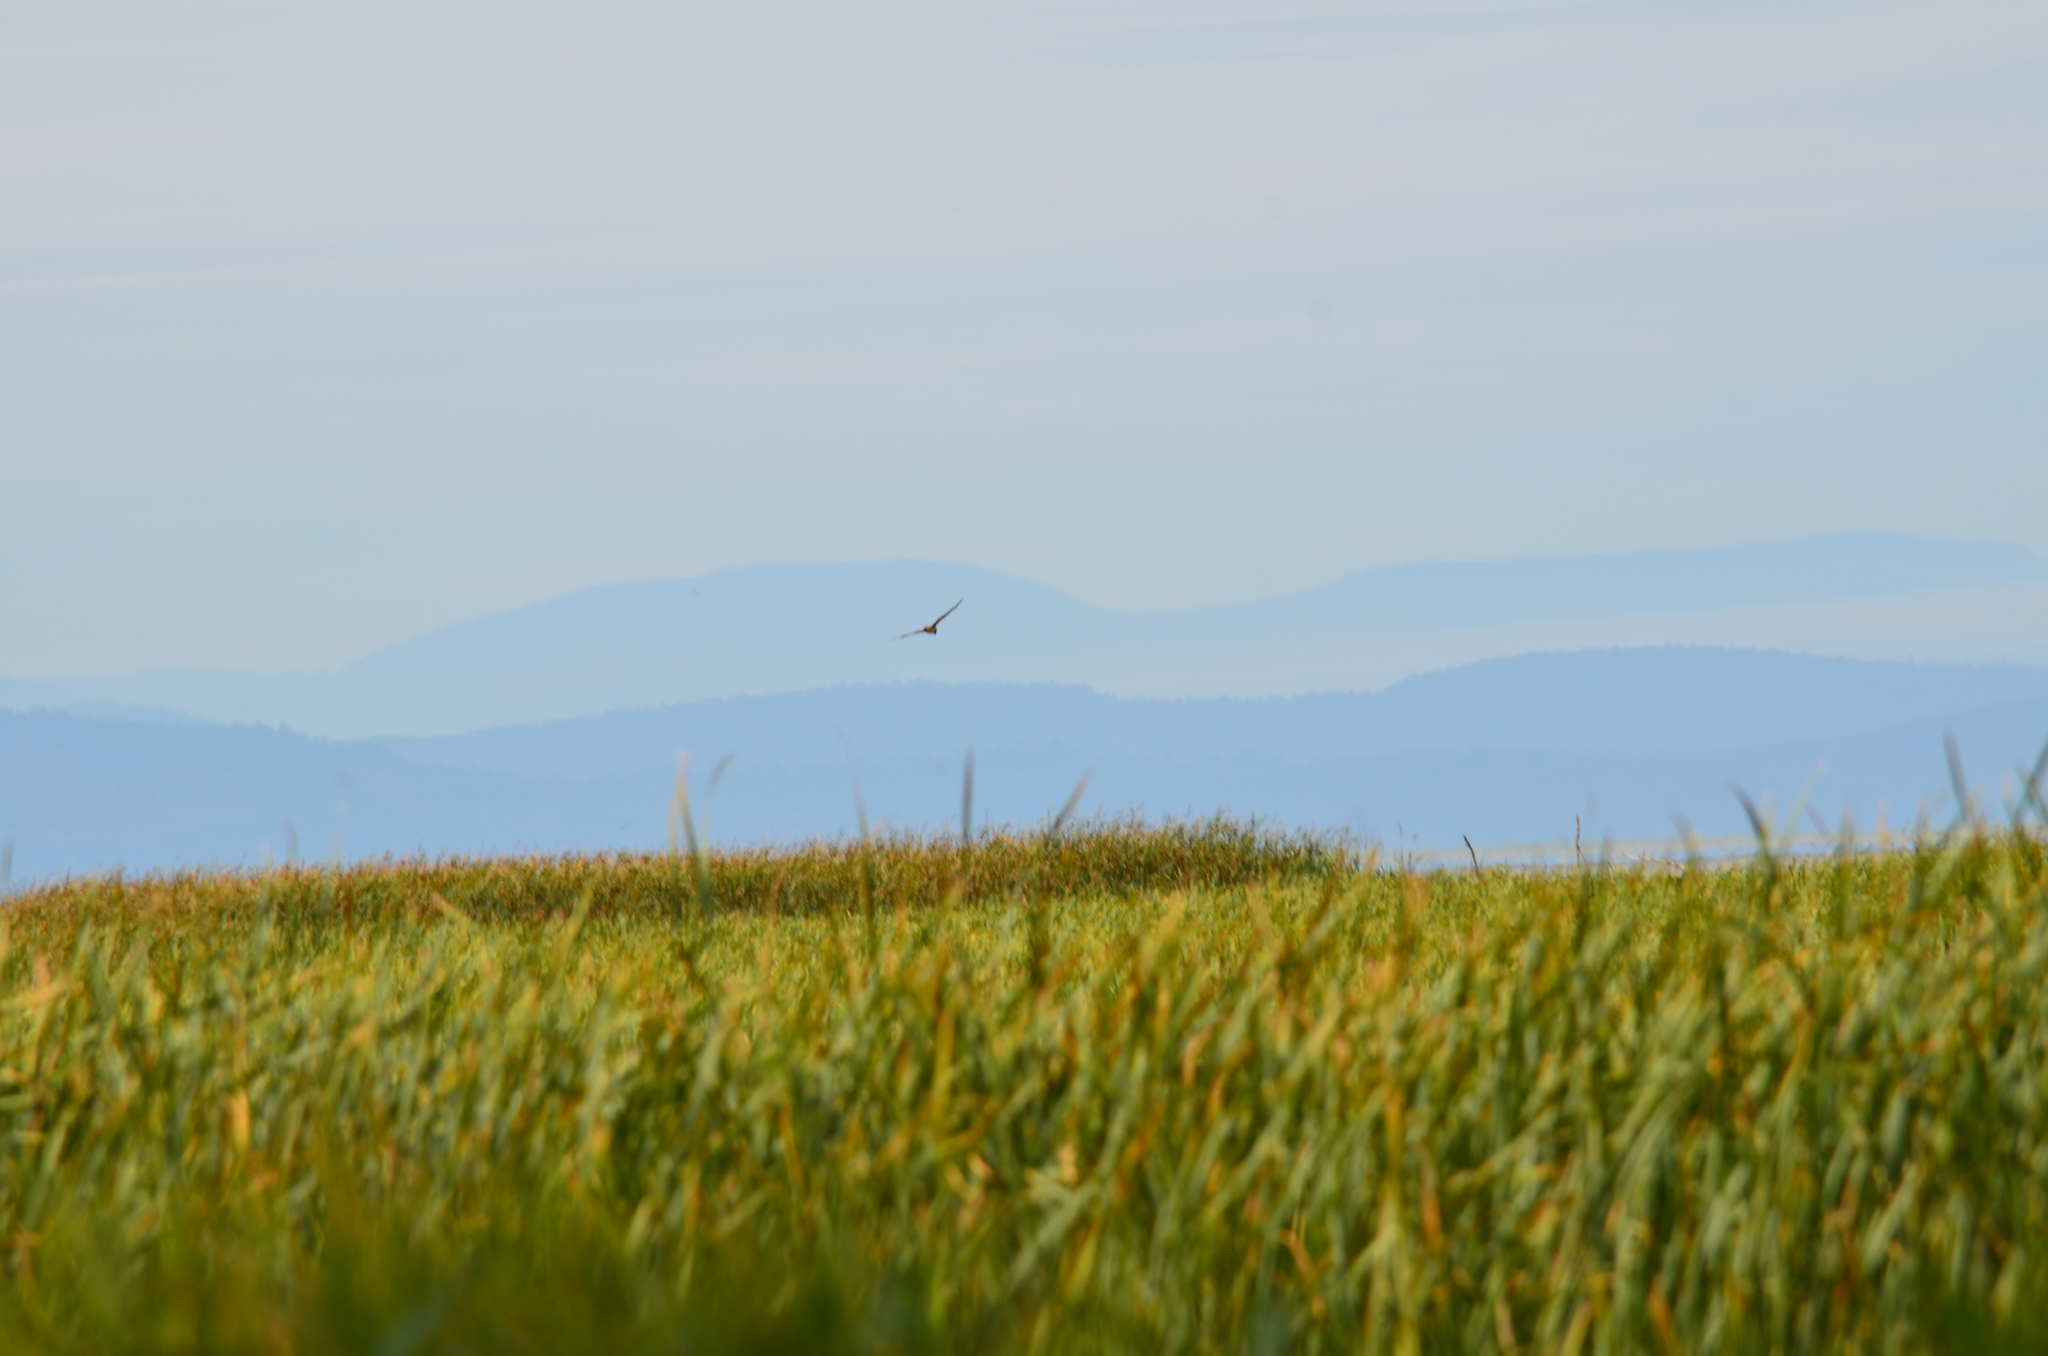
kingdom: Animalia
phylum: Chordata
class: Aves
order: Accipitriformes
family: Accipitridae
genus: Circus
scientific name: Circus cyaneus
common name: Hen harrier
